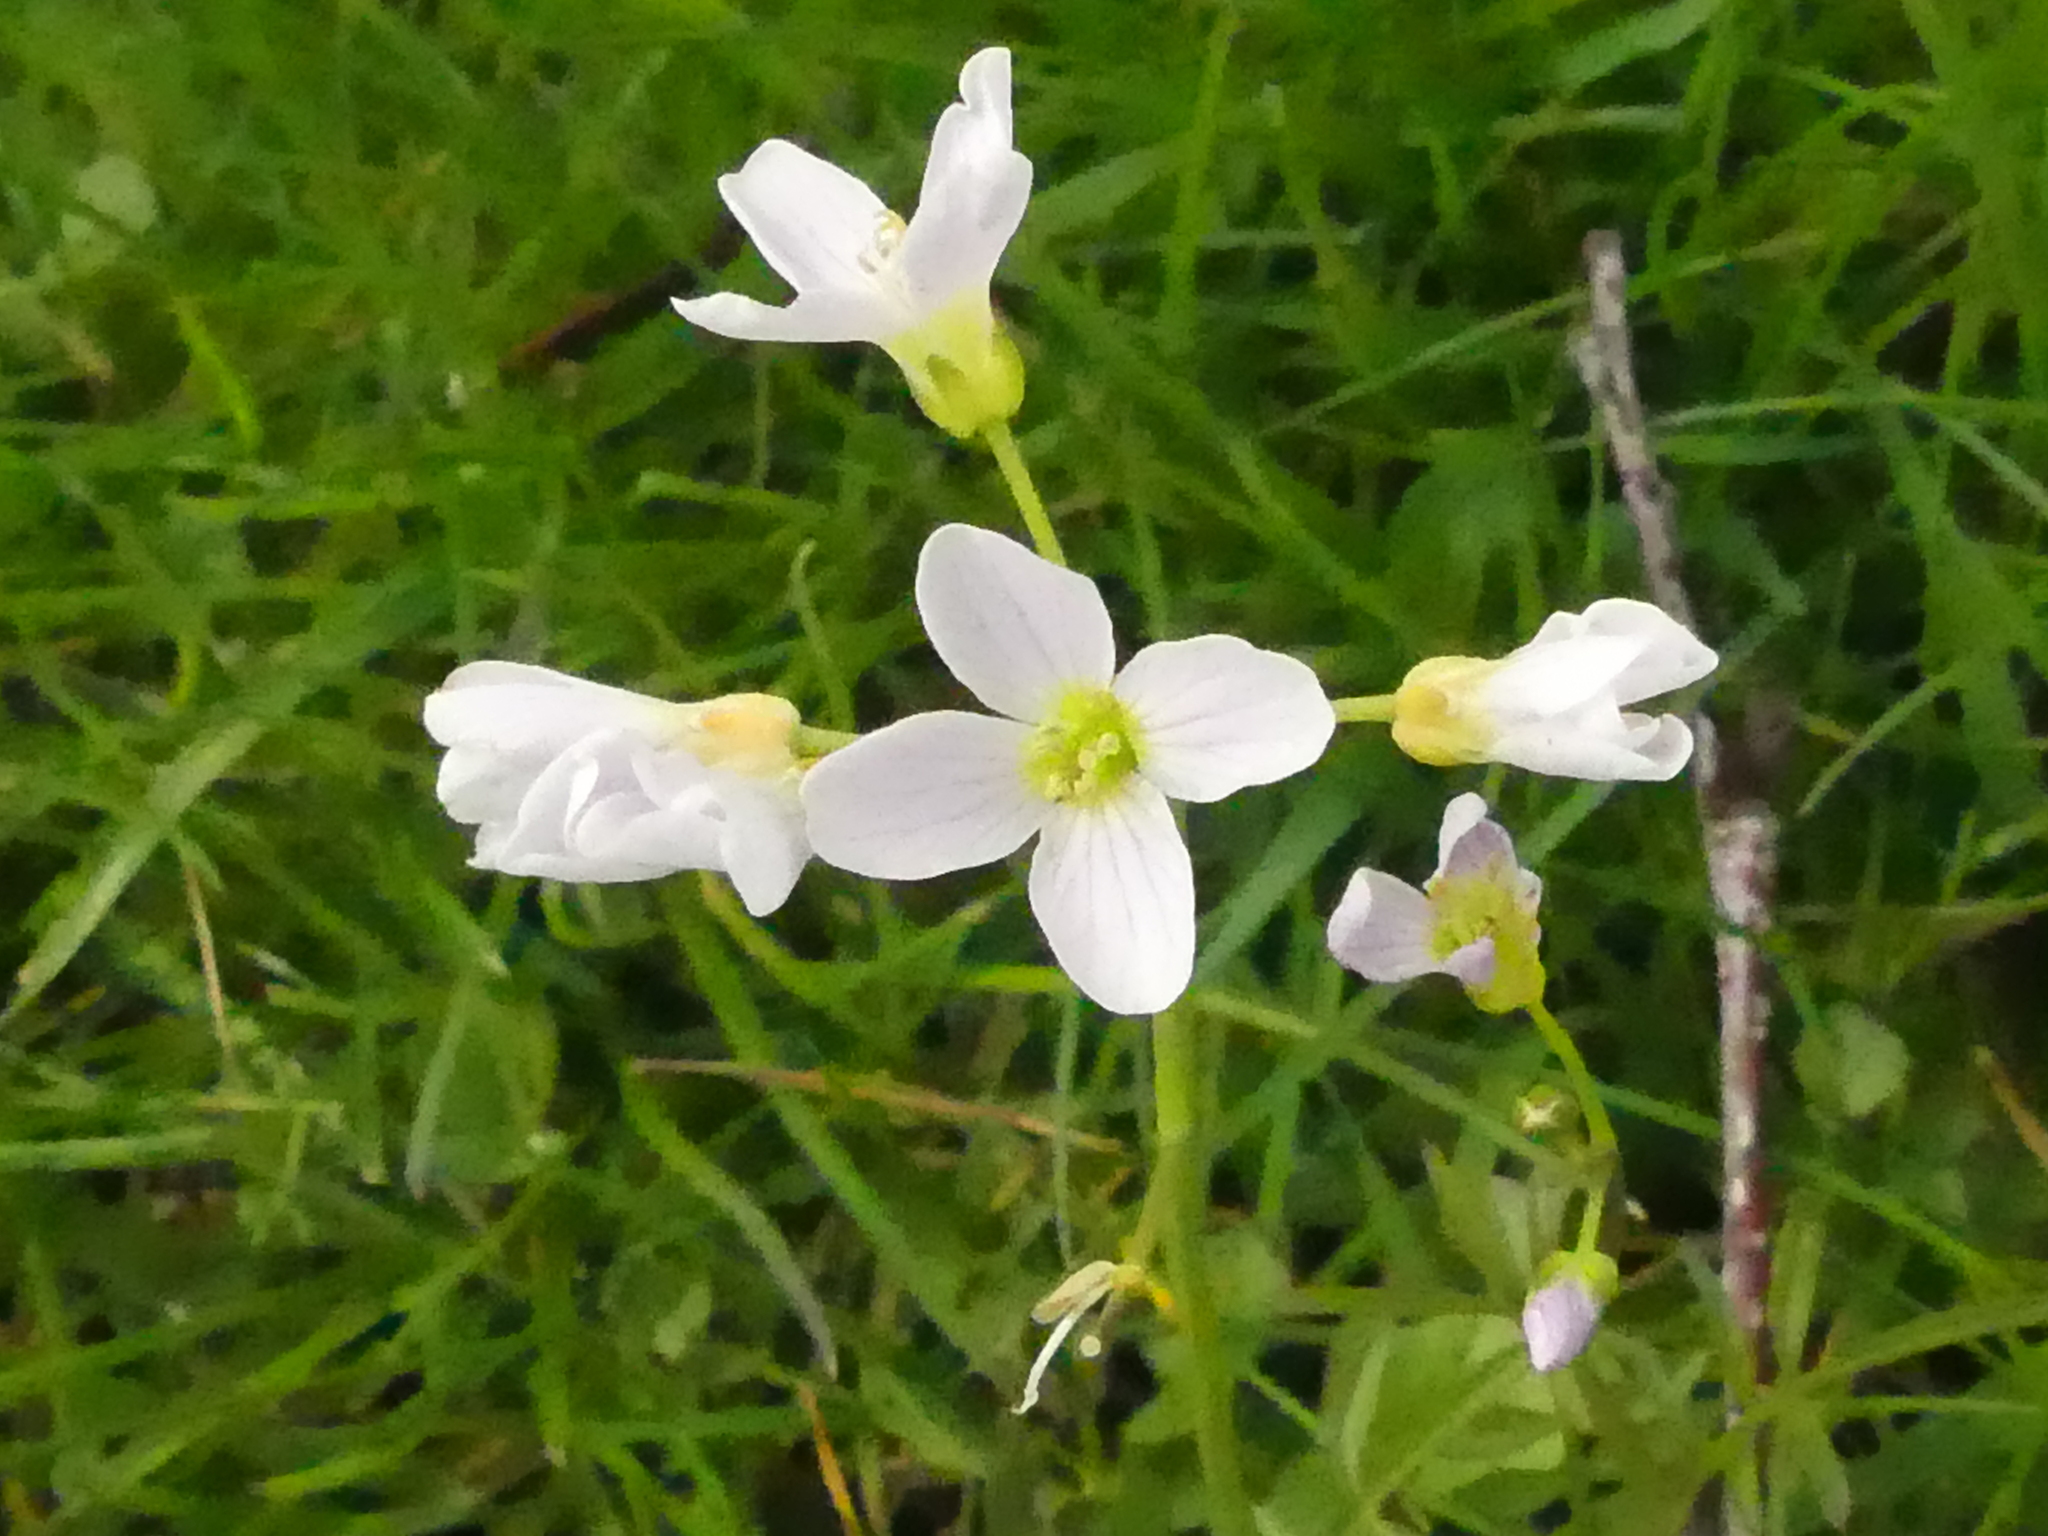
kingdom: Plantae
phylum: Tracheophyta
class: Magnoliopsida
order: Brassicales
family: Brassicaceae
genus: Cardamine
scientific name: Cardamine pratensis
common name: Cuckoo flower
